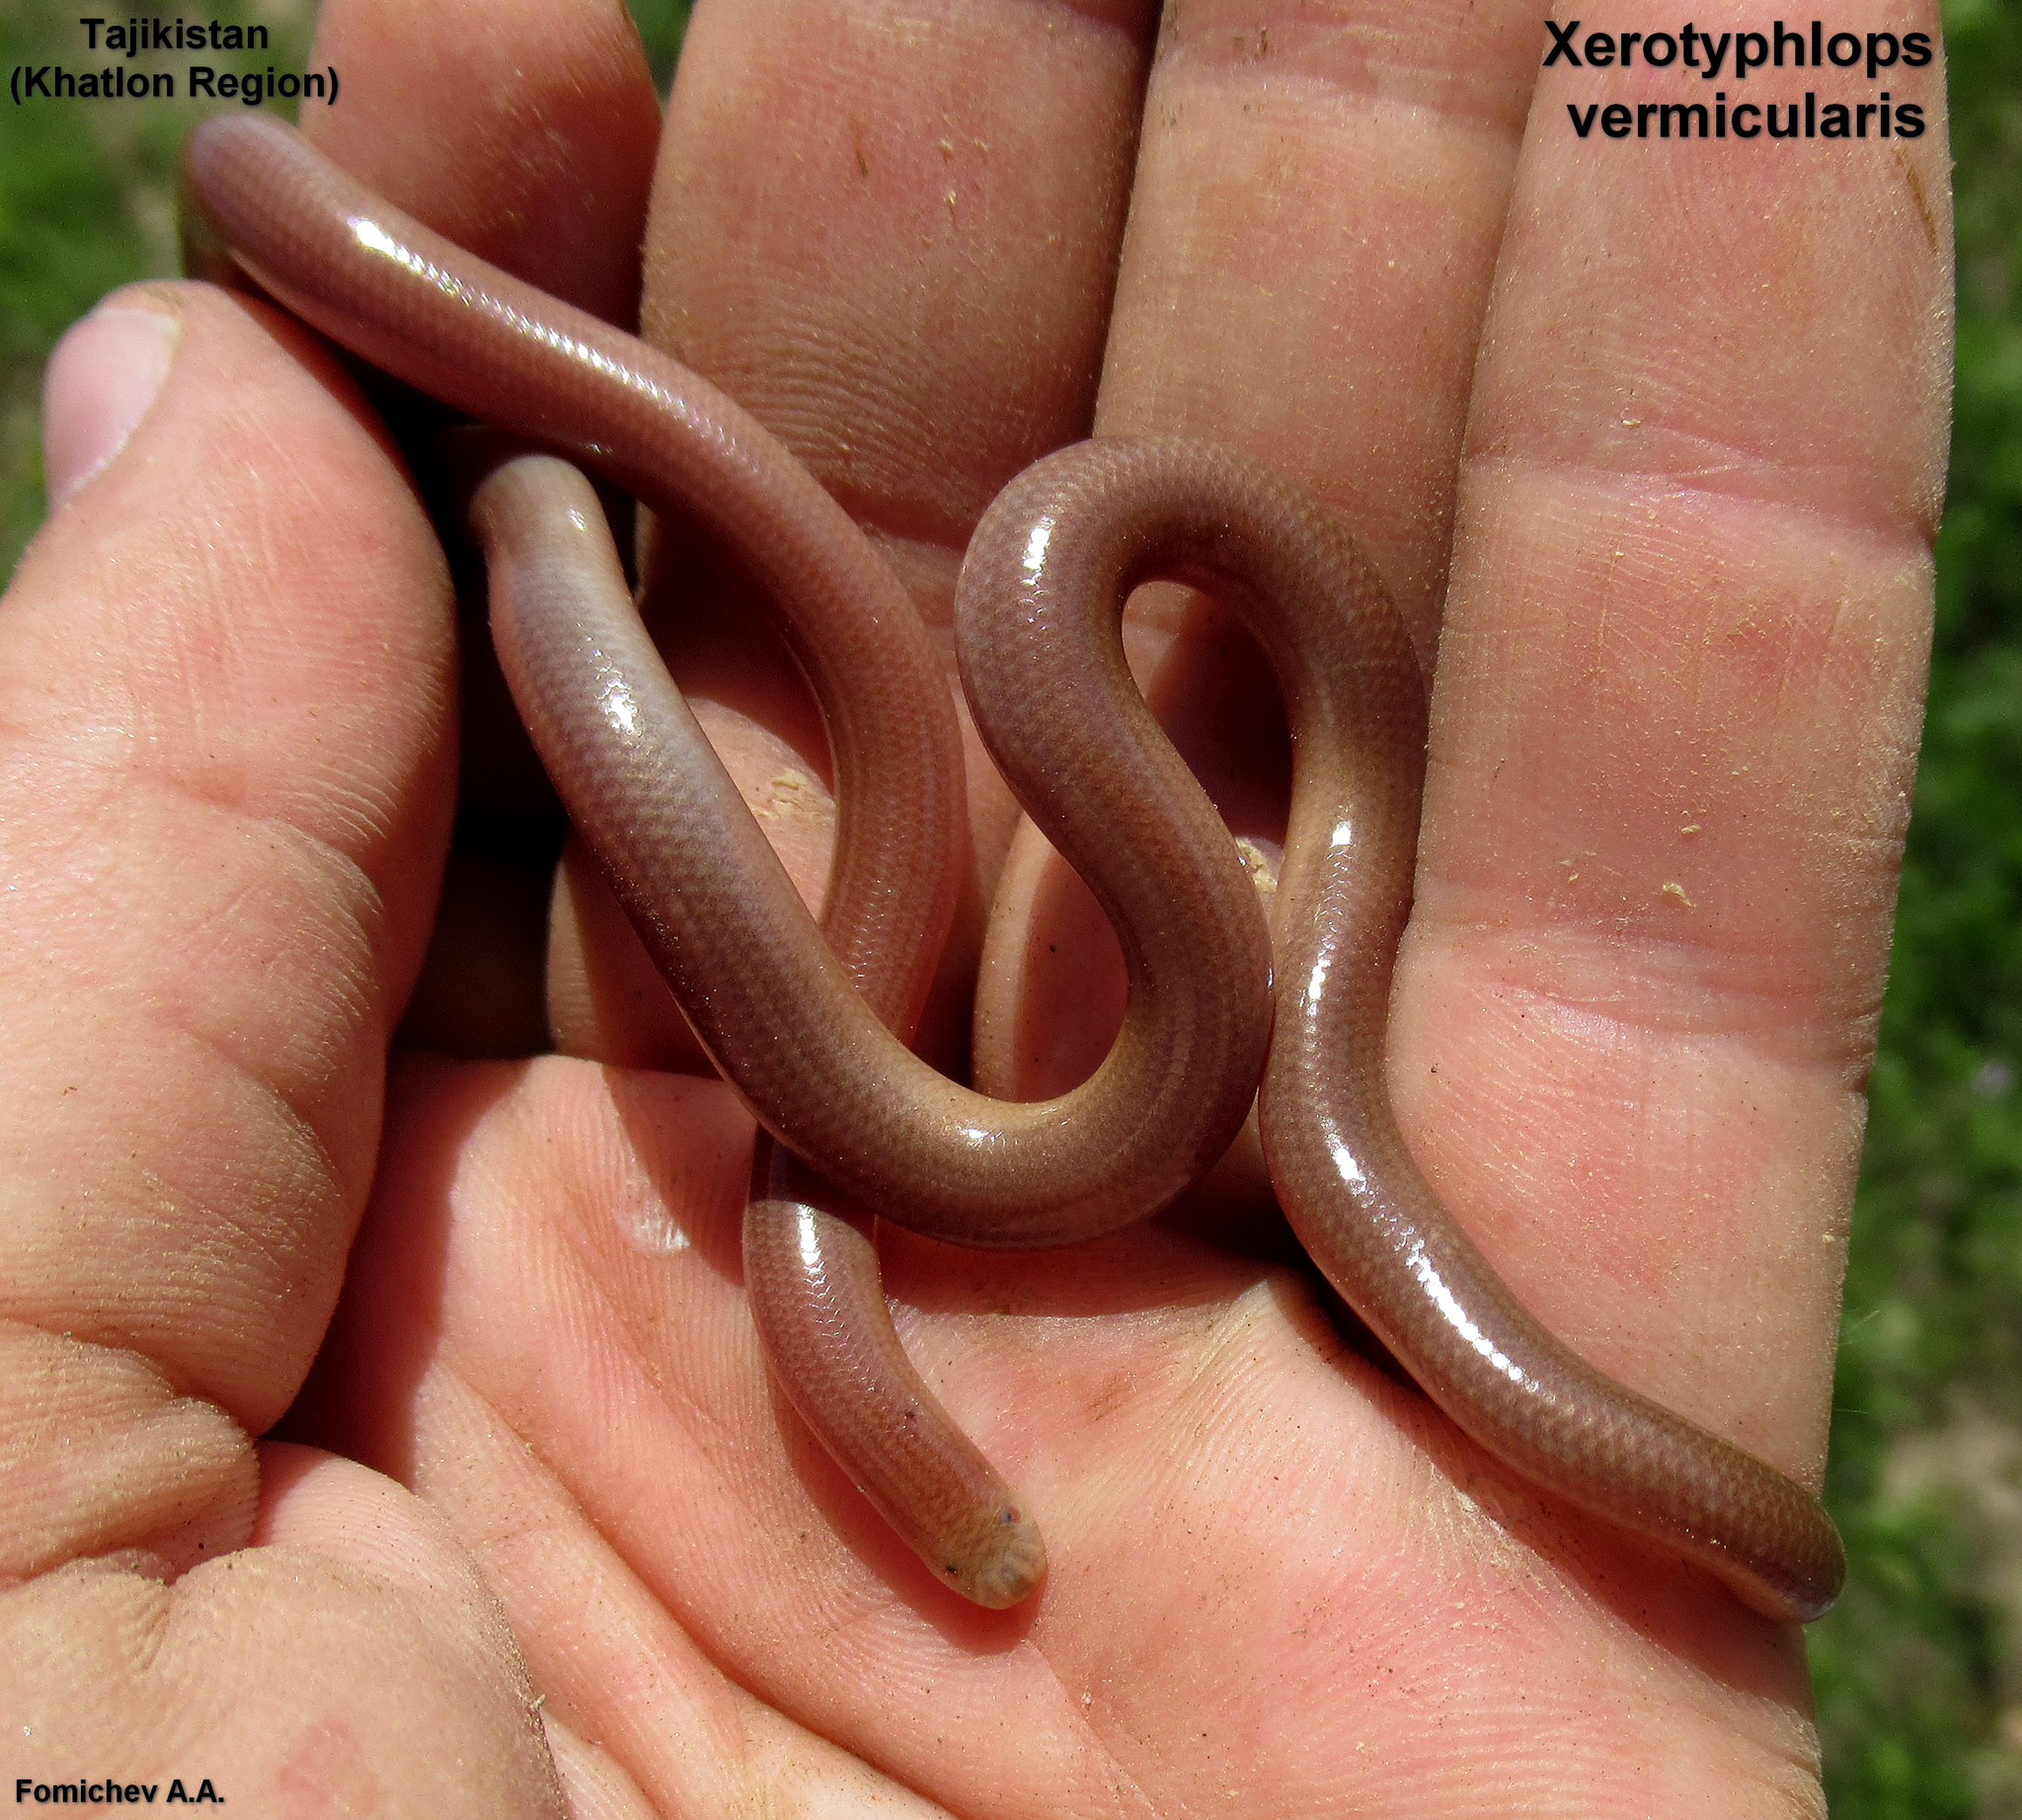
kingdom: Animalia
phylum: Chordata
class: Squamata
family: Typhlopidae
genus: Xerotyphlops
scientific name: Xerotyphlops vermicularis
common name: Eurasian blind snake
